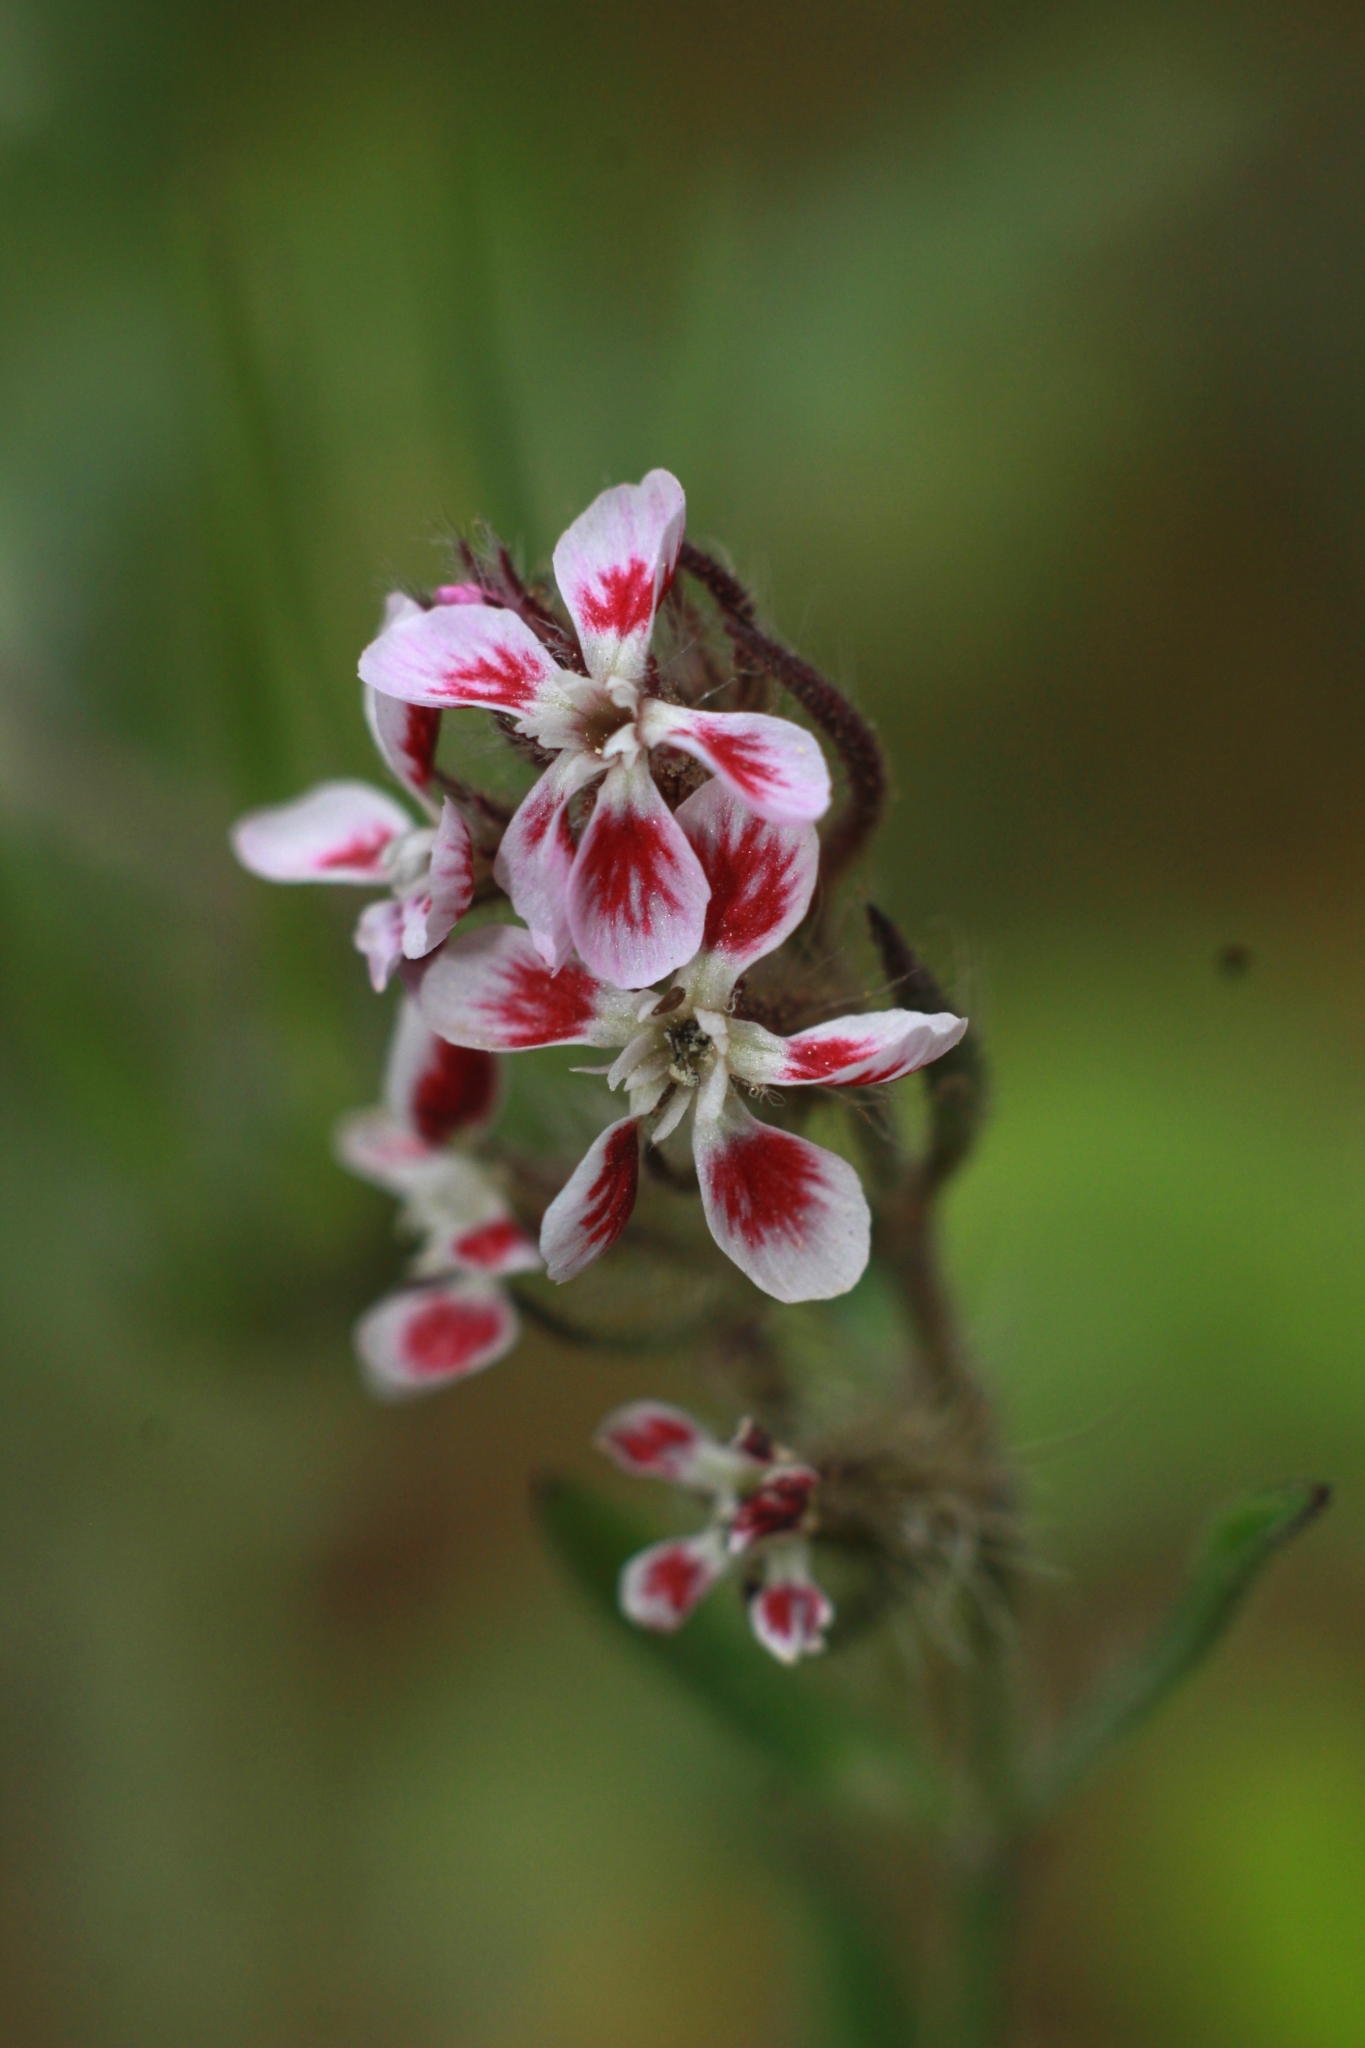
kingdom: Plantae
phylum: Tracheophyta
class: Magnoliopsida
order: Caryophyllales
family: Caryophyllaceae
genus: Silene
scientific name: Silene gallica
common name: Small-flowered catchfly
